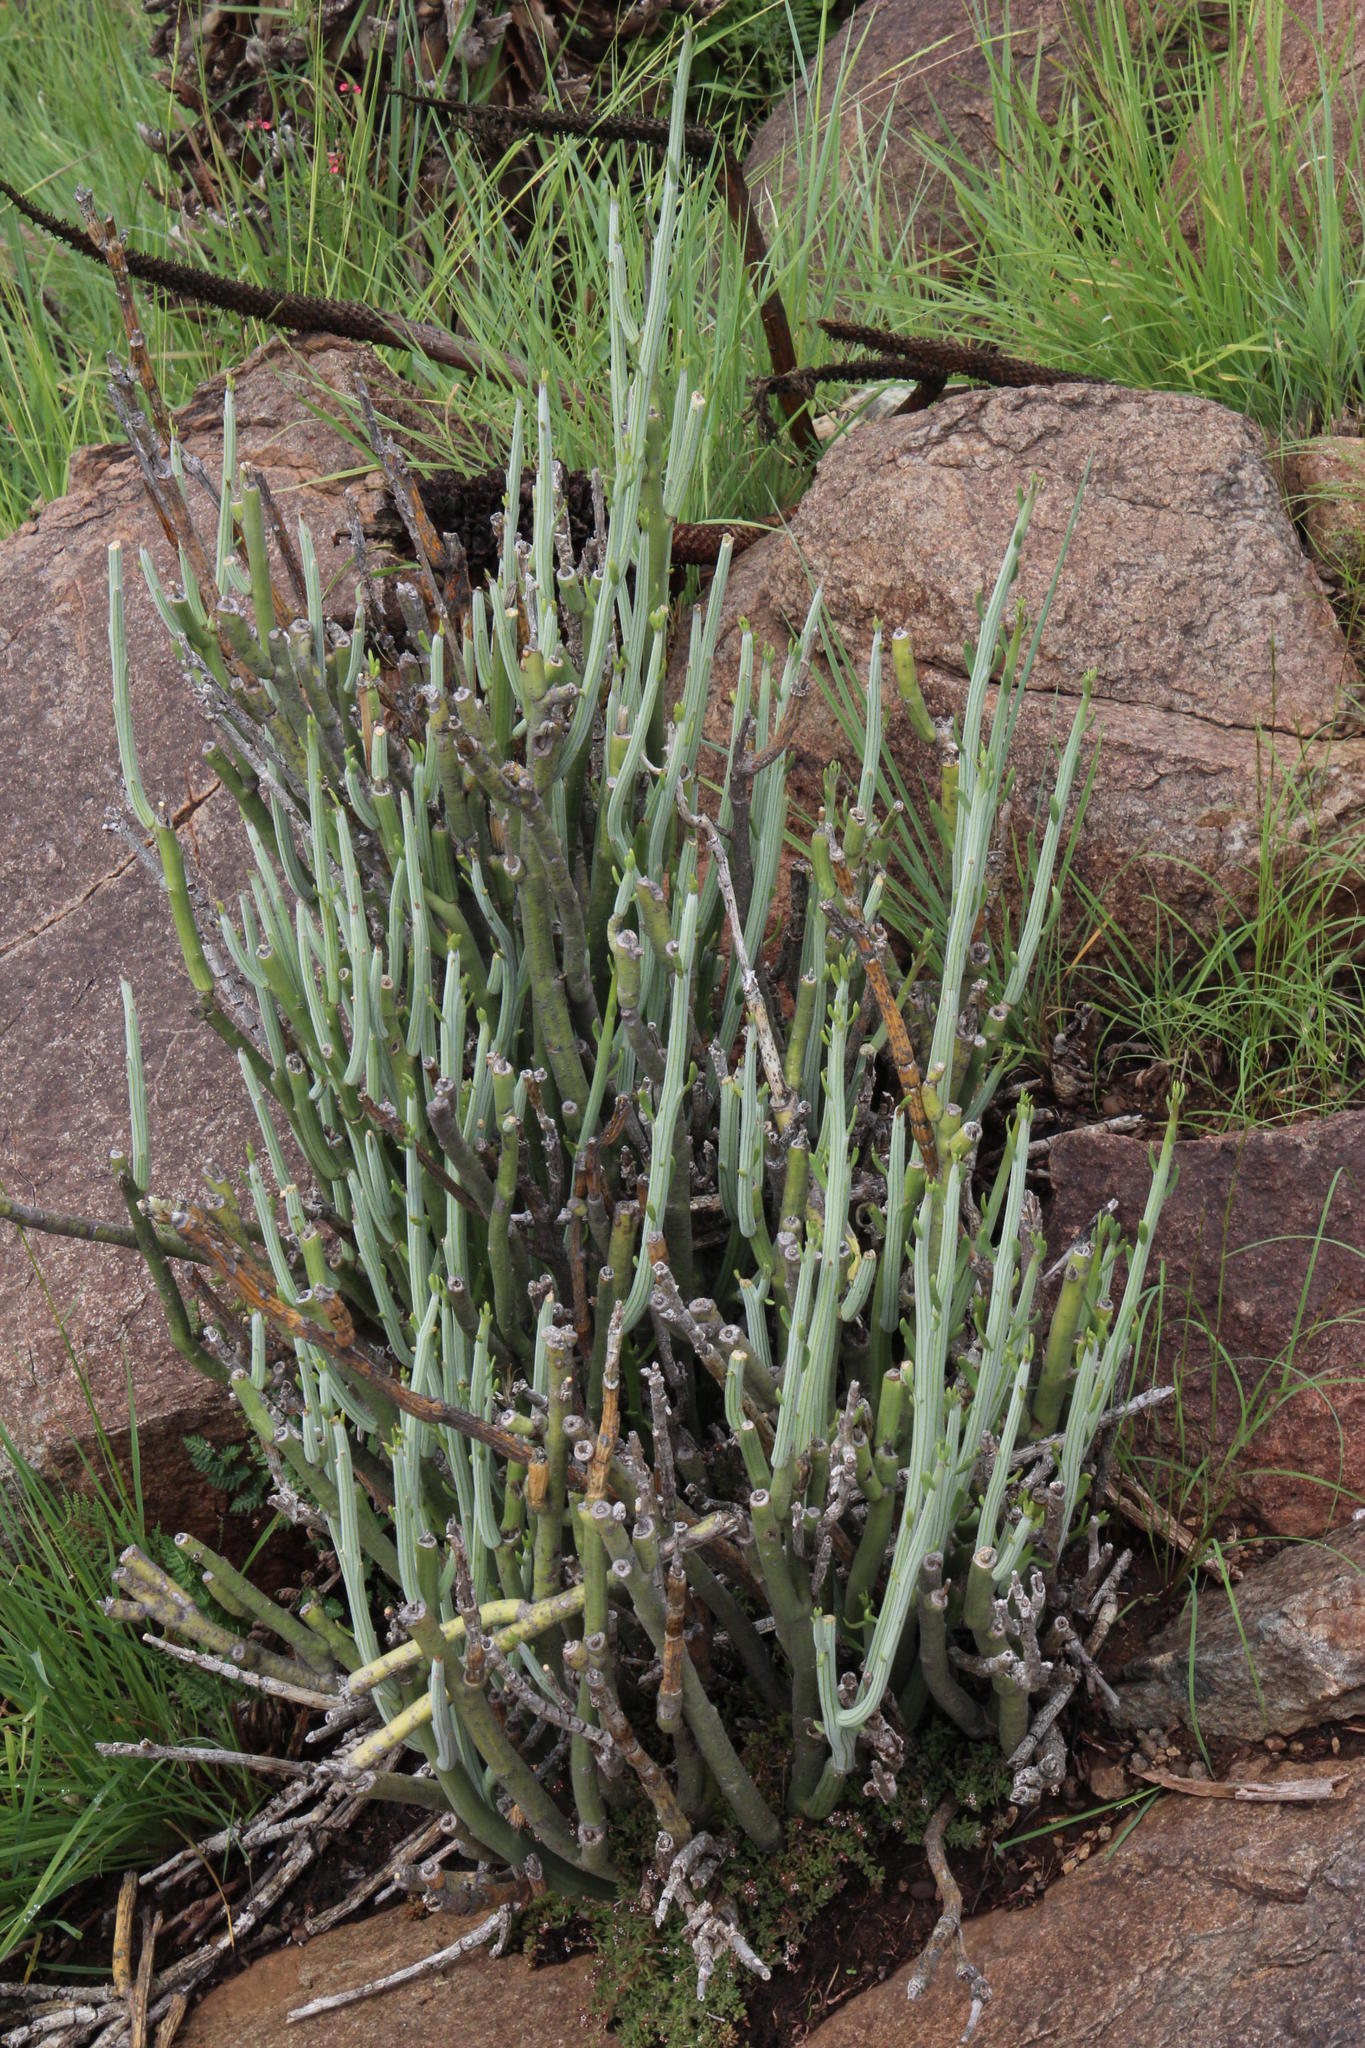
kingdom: Plantae
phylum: Tracheophyta
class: Magnoliopsida
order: Asterales
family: Asteraceae
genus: Curio
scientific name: Curio avasimontanus
